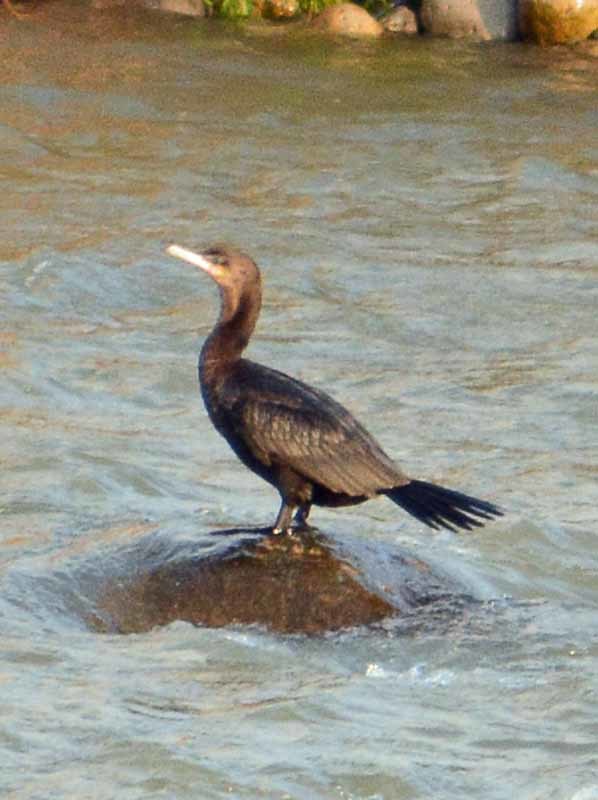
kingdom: Animalia
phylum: Chordata
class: Aves
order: Suliformes
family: Phalacrocoracidae
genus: Phalacrocorax
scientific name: Phalacrocorax brasilianus
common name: Neotropic cormorant
